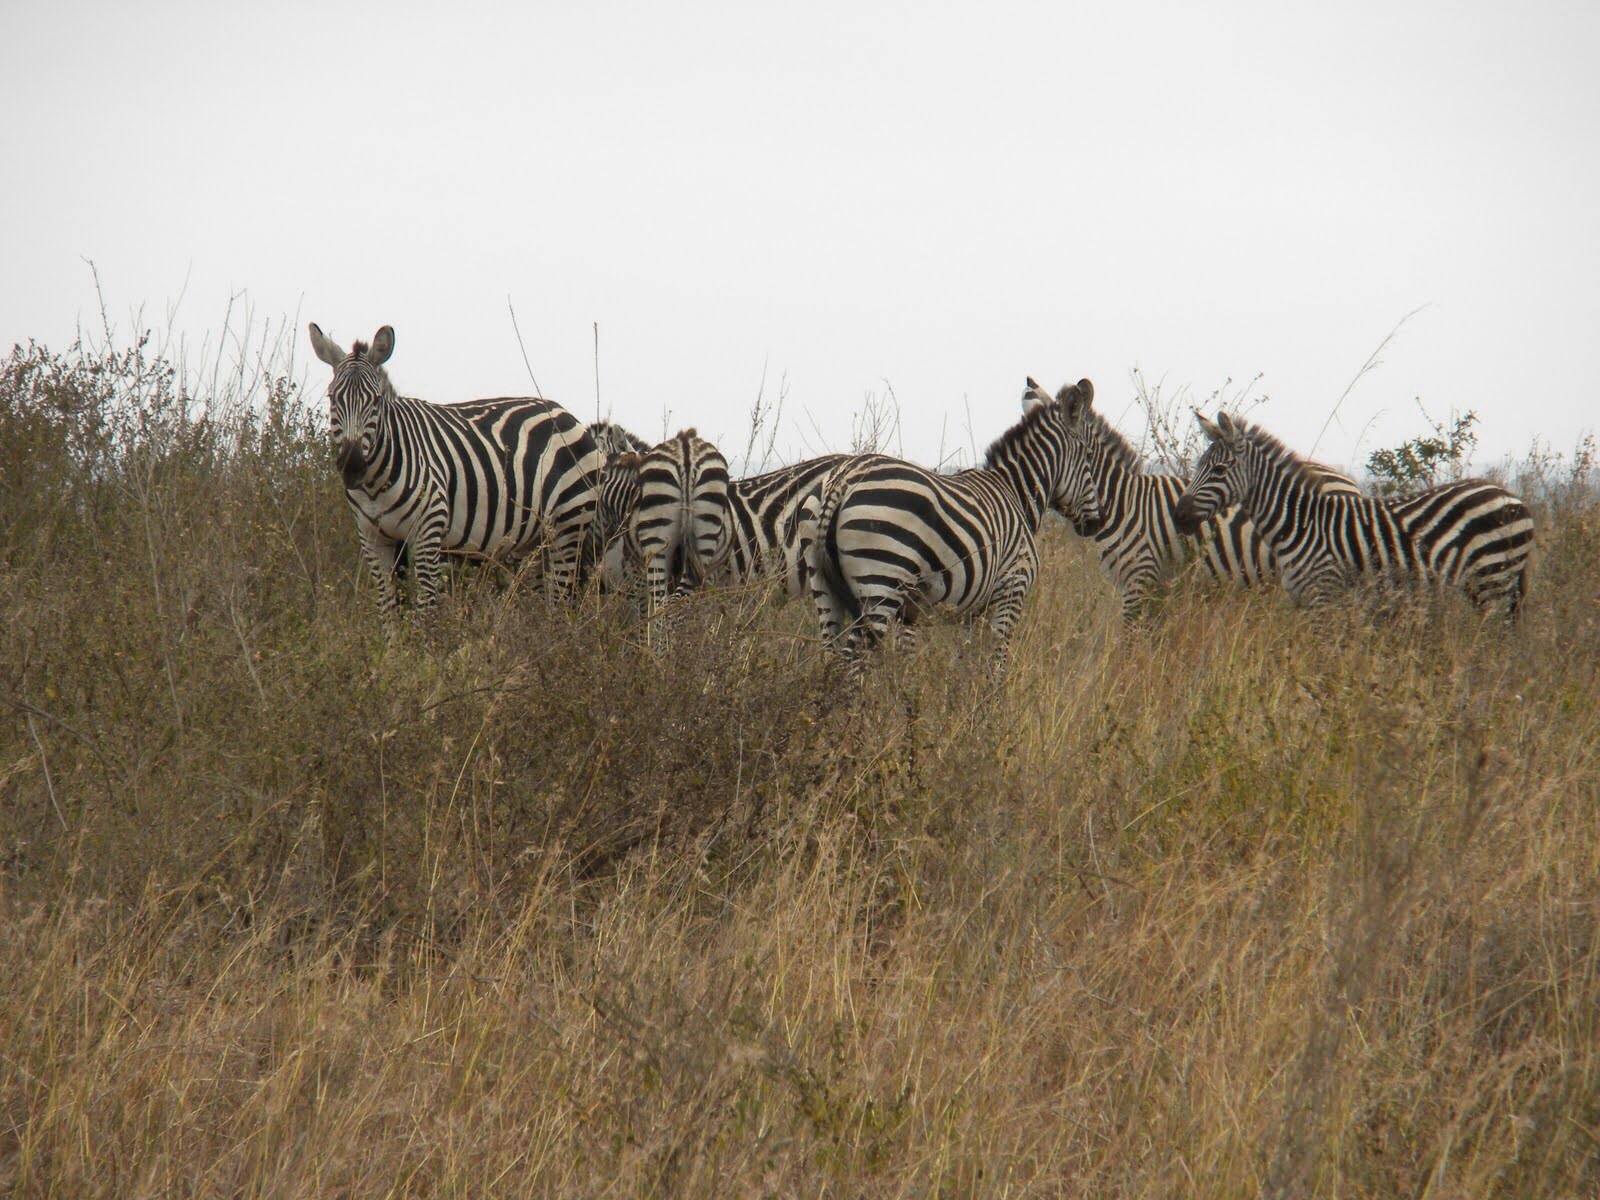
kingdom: Animalia
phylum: Chordata
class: Mammalia
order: Perissodactyla
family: Equidae
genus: Equus
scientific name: Equus quagga
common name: Plains zebra
